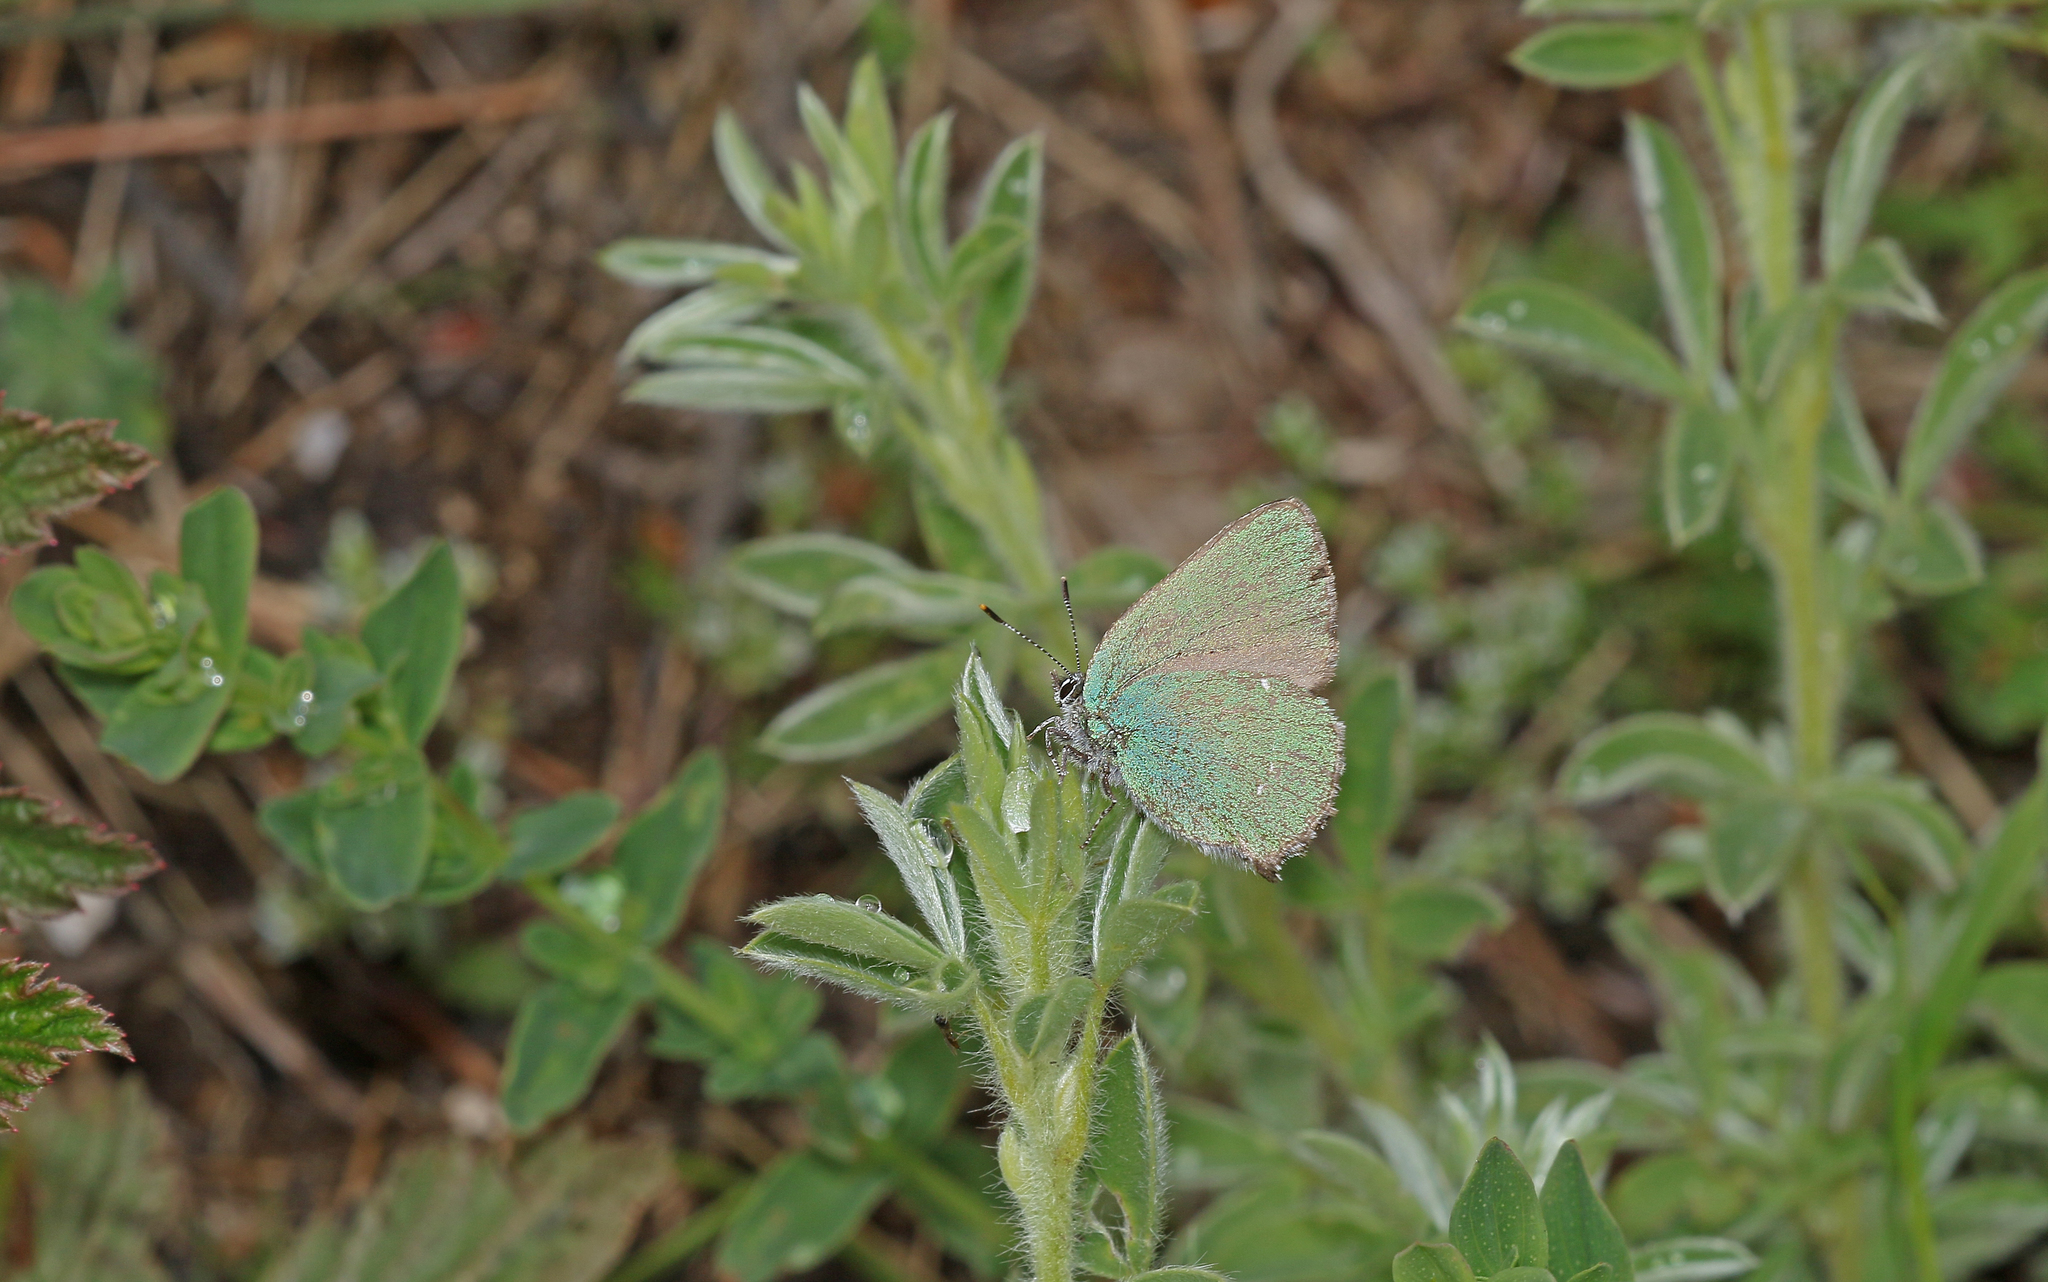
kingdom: Animalia
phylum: Arthropoda
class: Insecta
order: Lepidoptera
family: Lycaenidae
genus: Callophrys
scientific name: Callophrys rubi
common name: Green hairstreak
